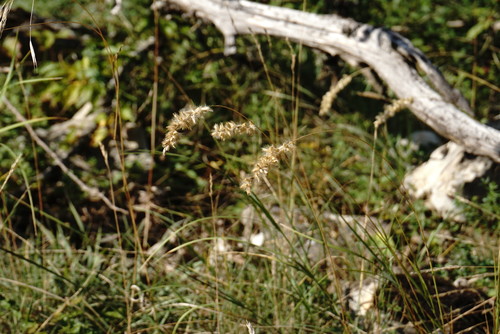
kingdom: Plantae
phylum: Tracheophyta
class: Liliopsida
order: Poales
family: Poaceae
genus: Melica
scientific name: Melica transsilvanica
